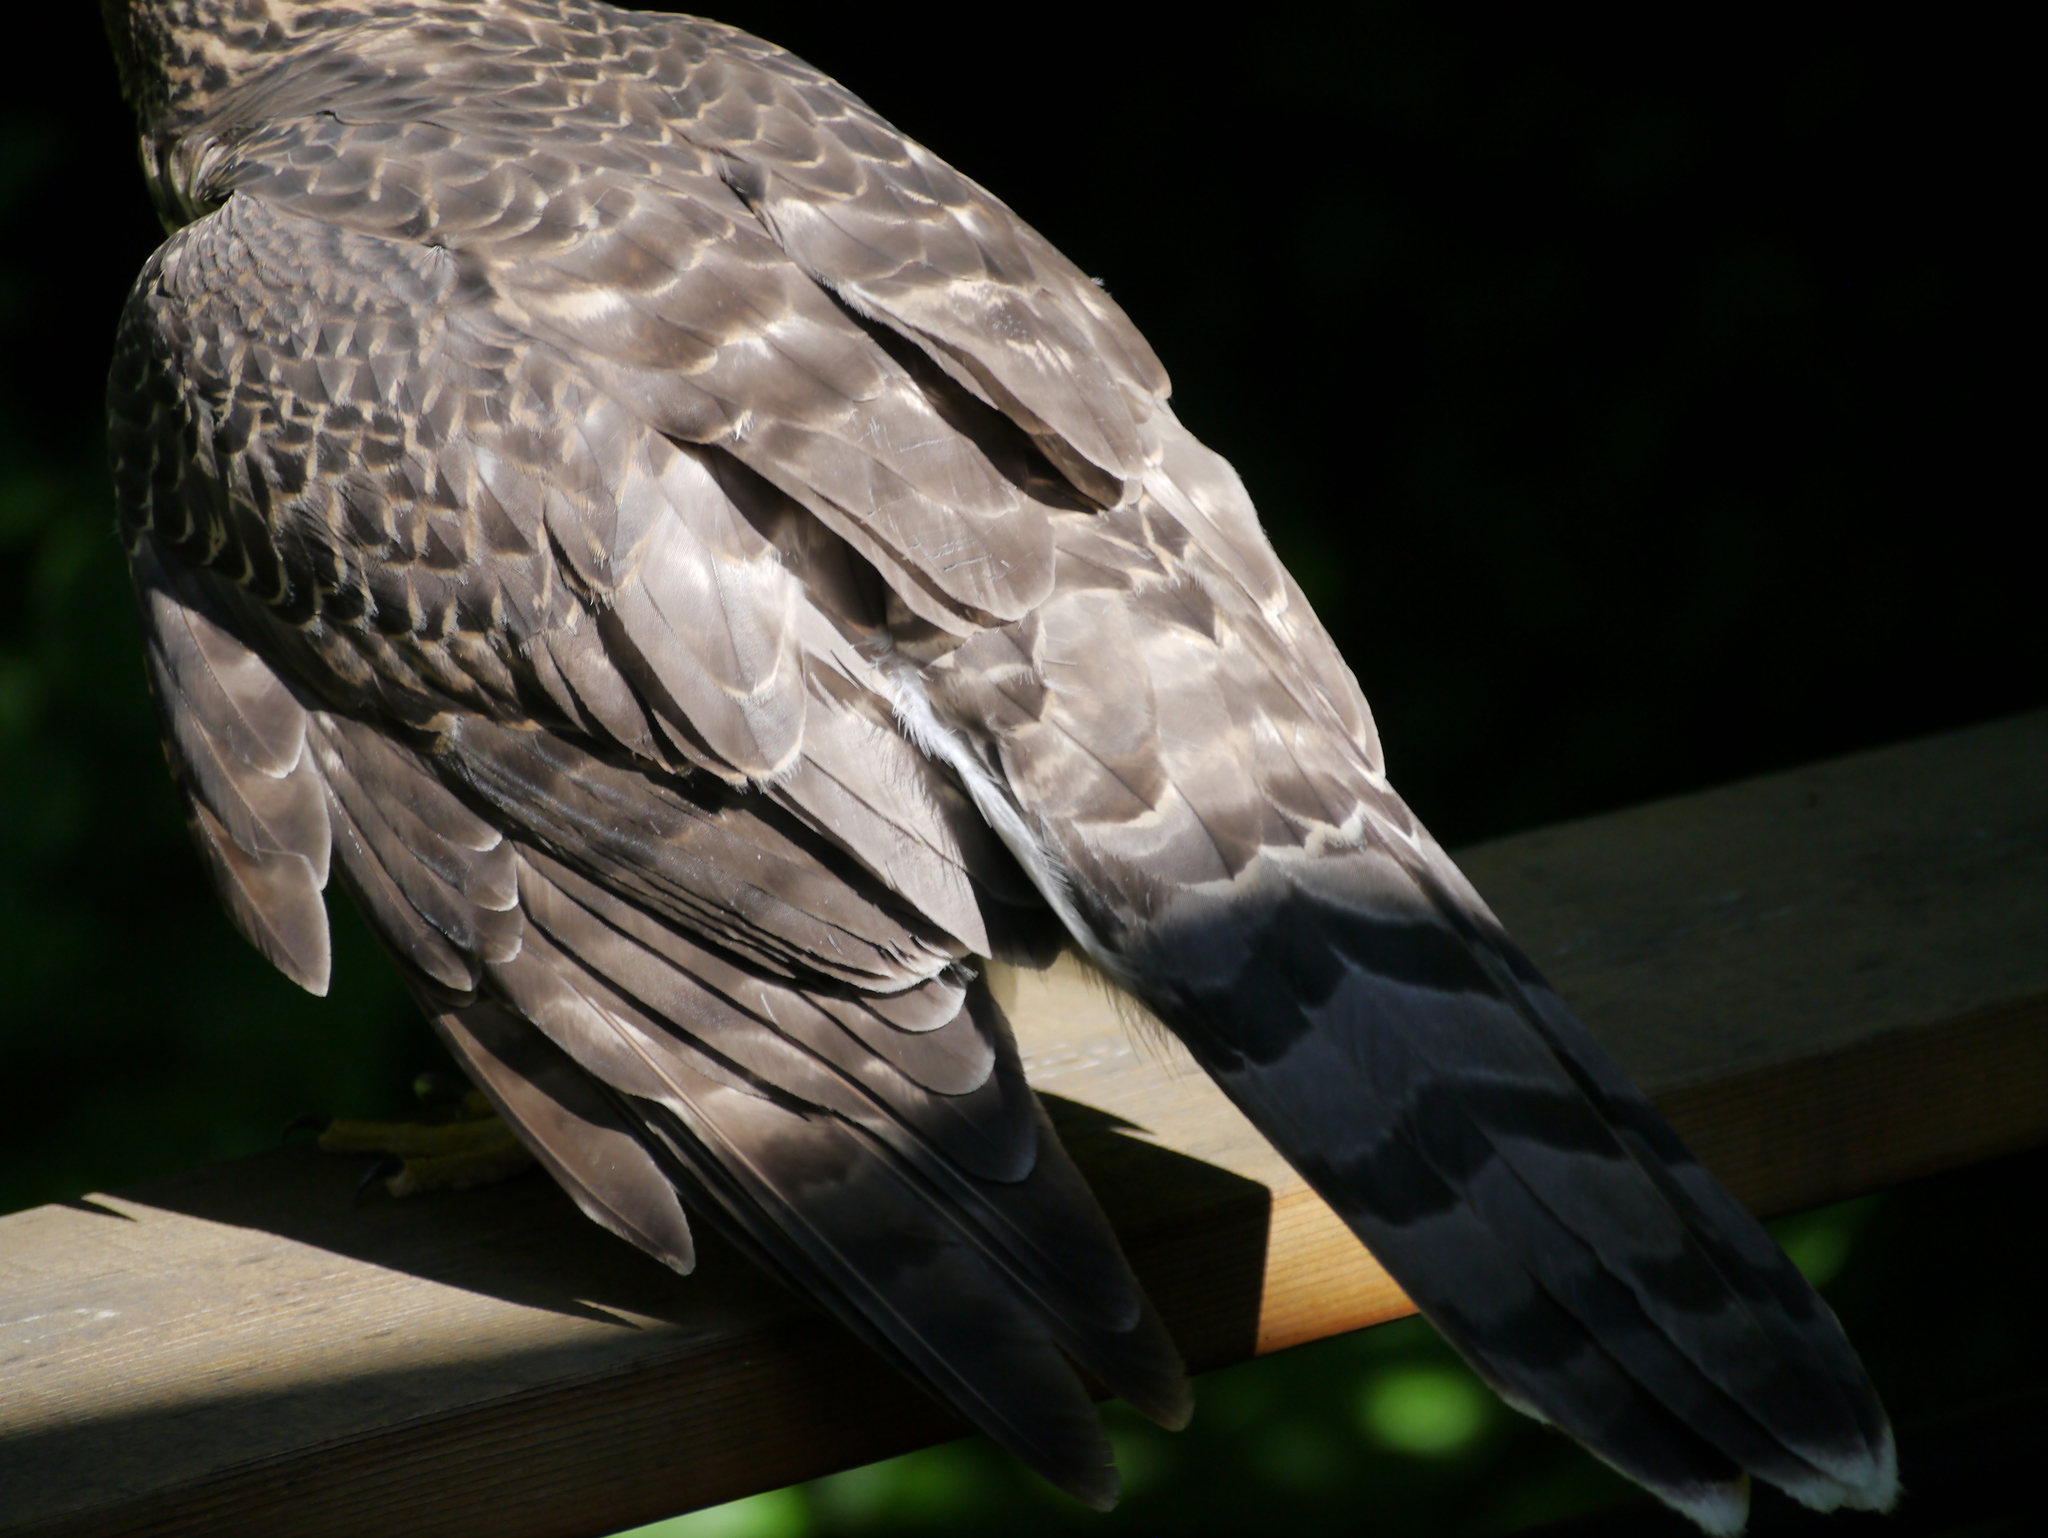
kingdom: Animalia
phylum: Chordata
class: Aves
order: Accipitriformes
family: Accipitridae
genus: Accipiter
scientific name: Accipiter gentilis
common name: Northern goshawk
